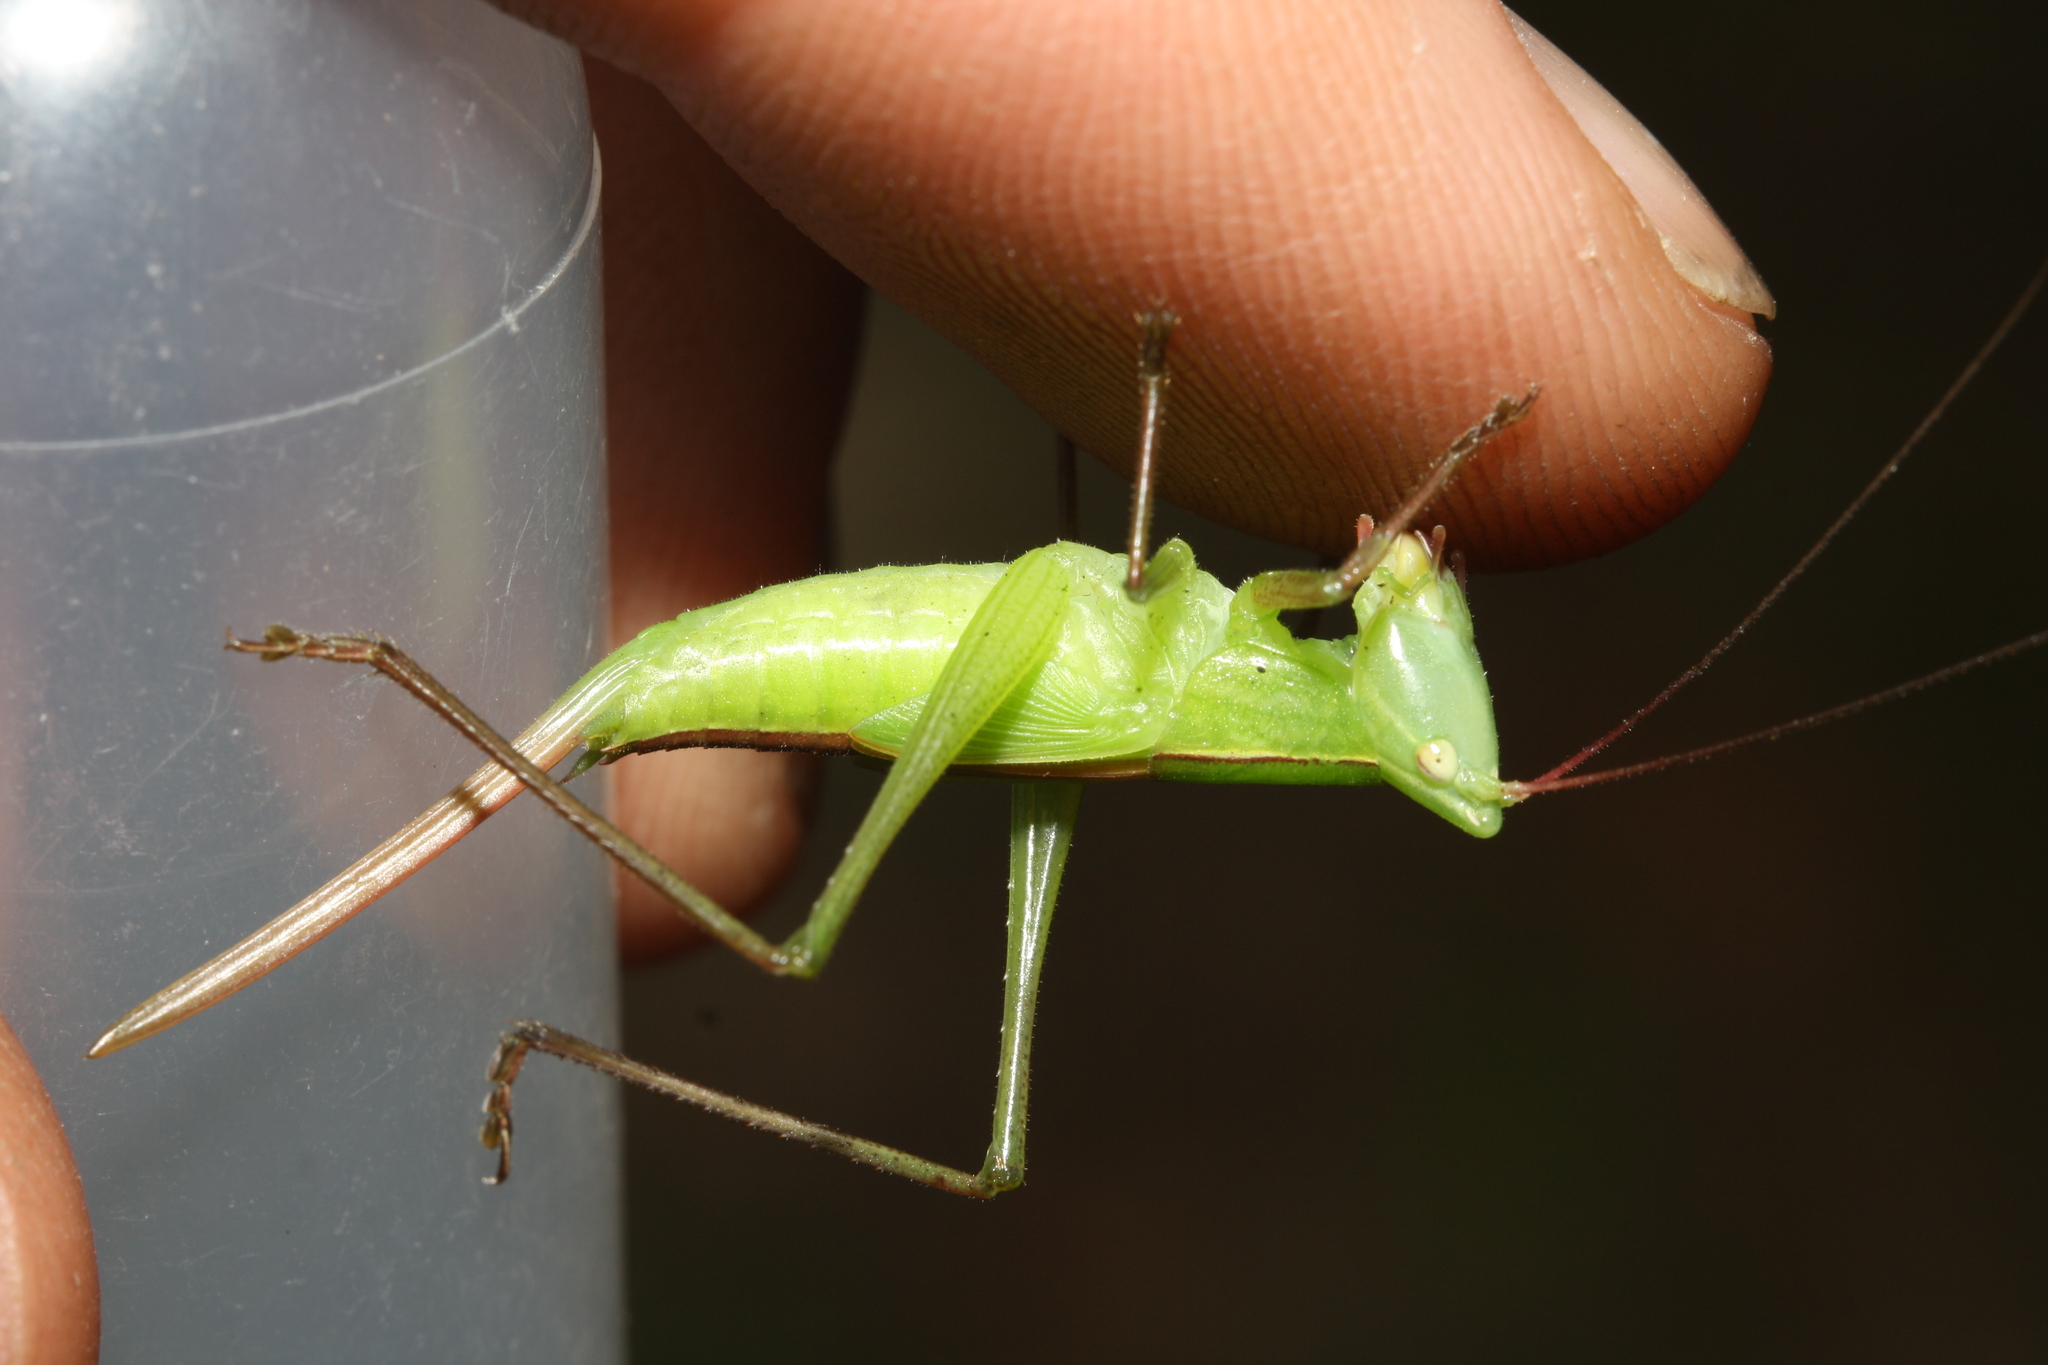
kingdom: Animalia
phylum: Arthropoda
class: Insecta
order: Orthoptera
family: Tettigoniidae
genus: Ruspolia
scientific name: Ruspolia nitidula
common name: Large conehead
